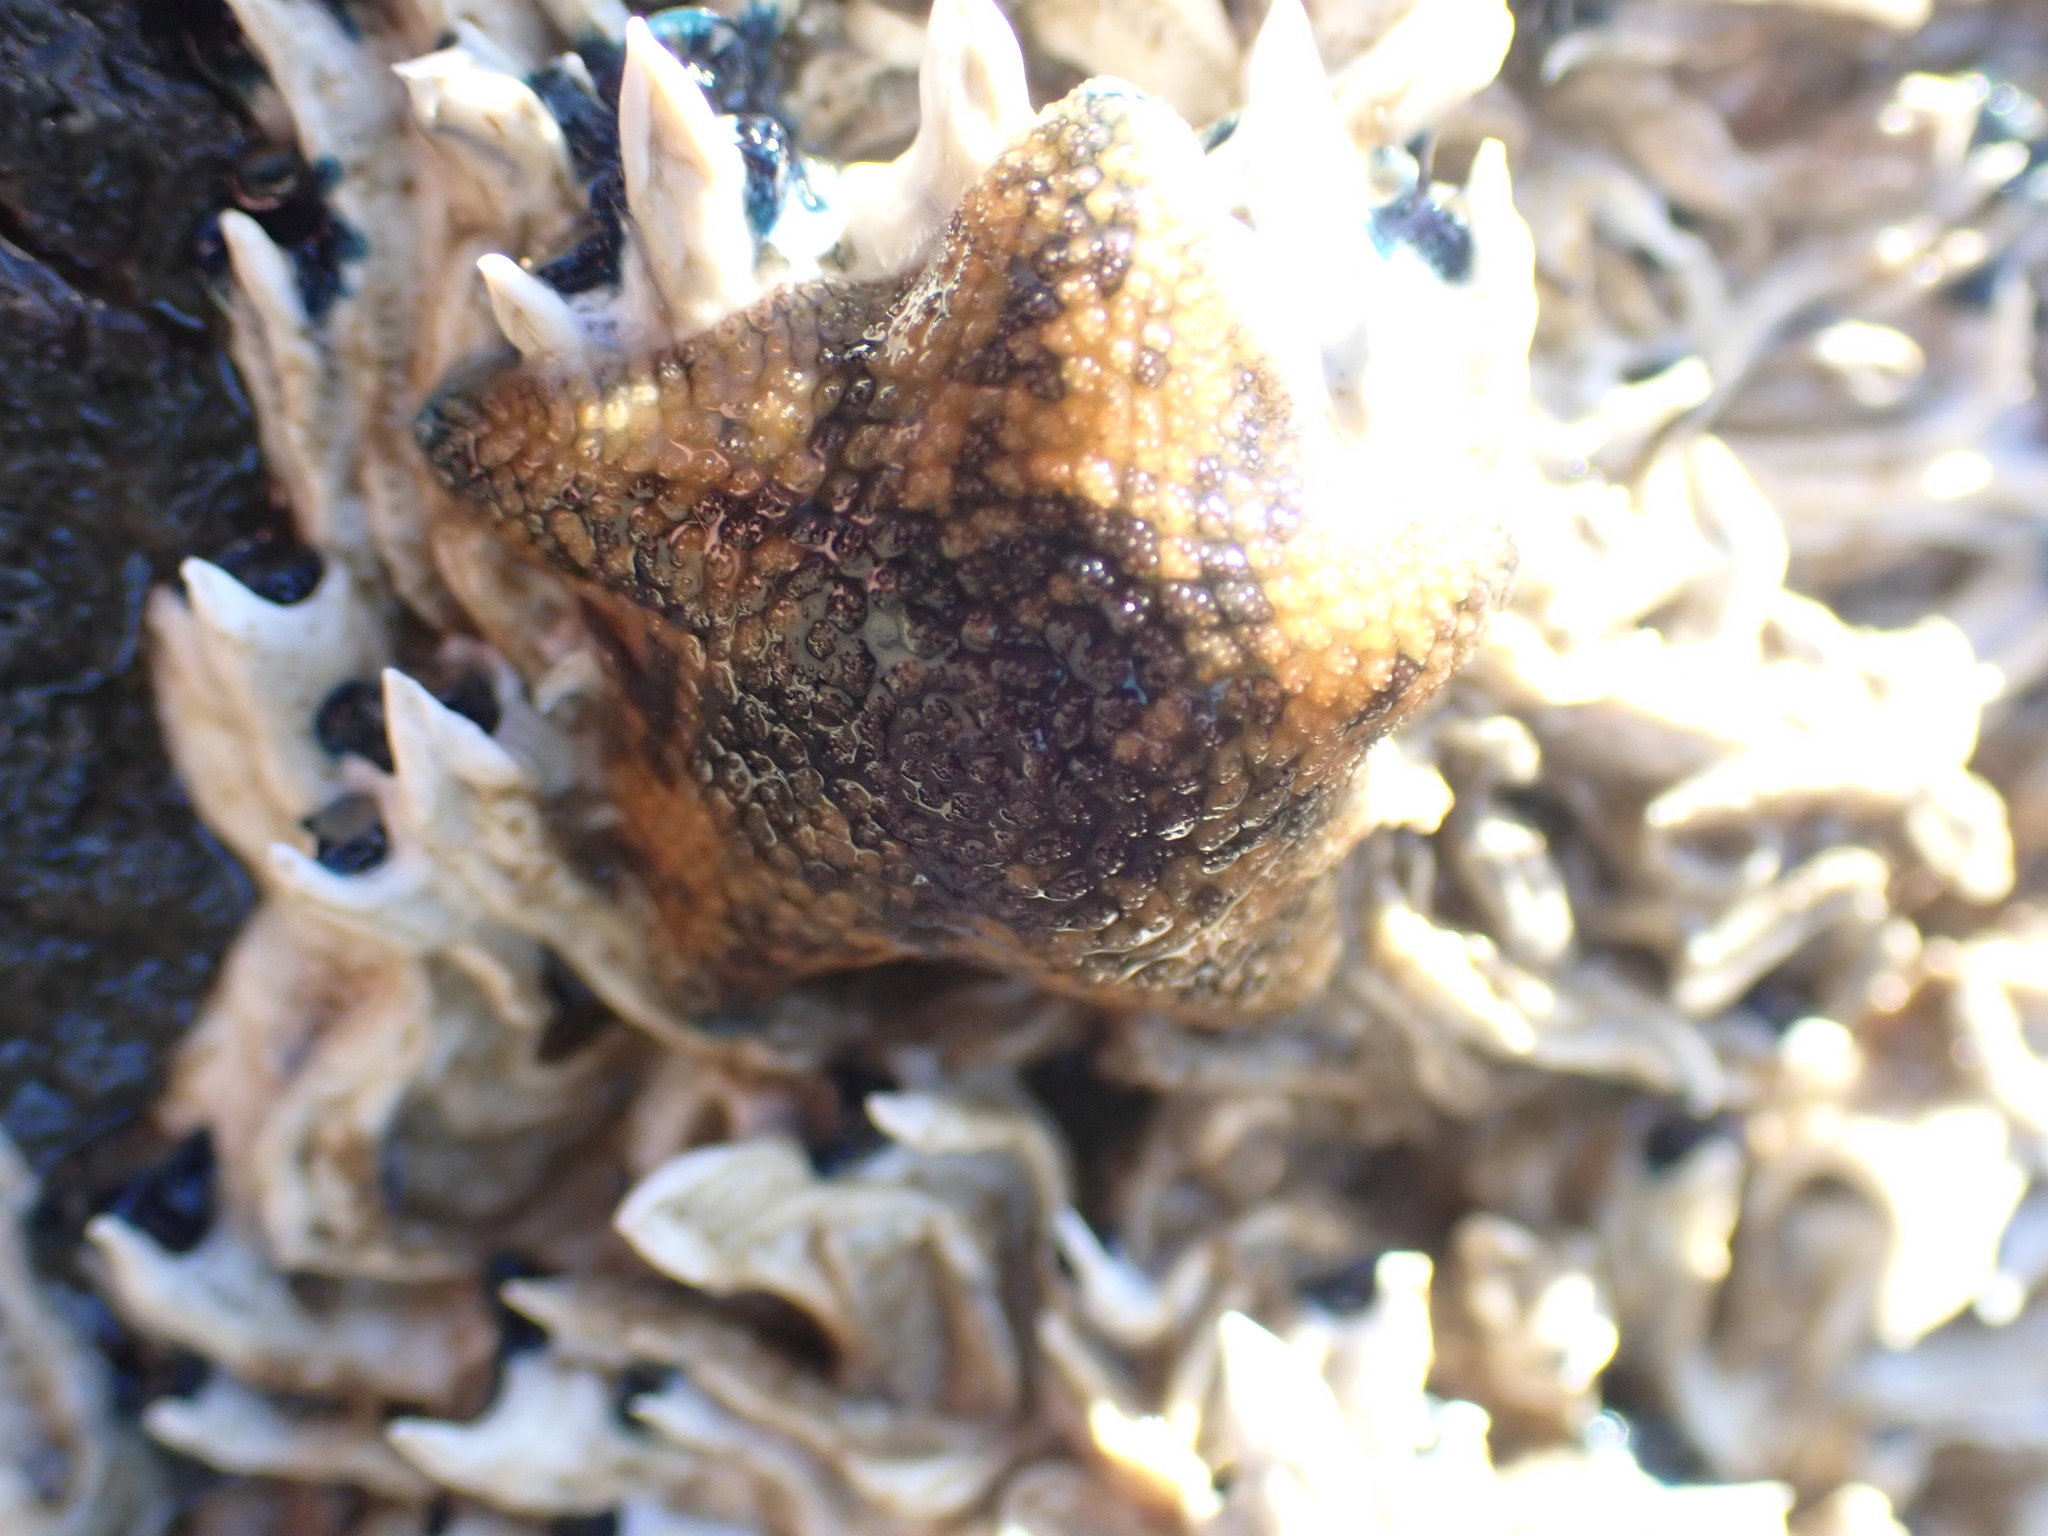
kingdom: Animalia
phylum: Echinodermata
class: Asteroidea
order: Valvatida
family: Asterinidae
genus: Patiriella
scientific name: Patiriella regularis
